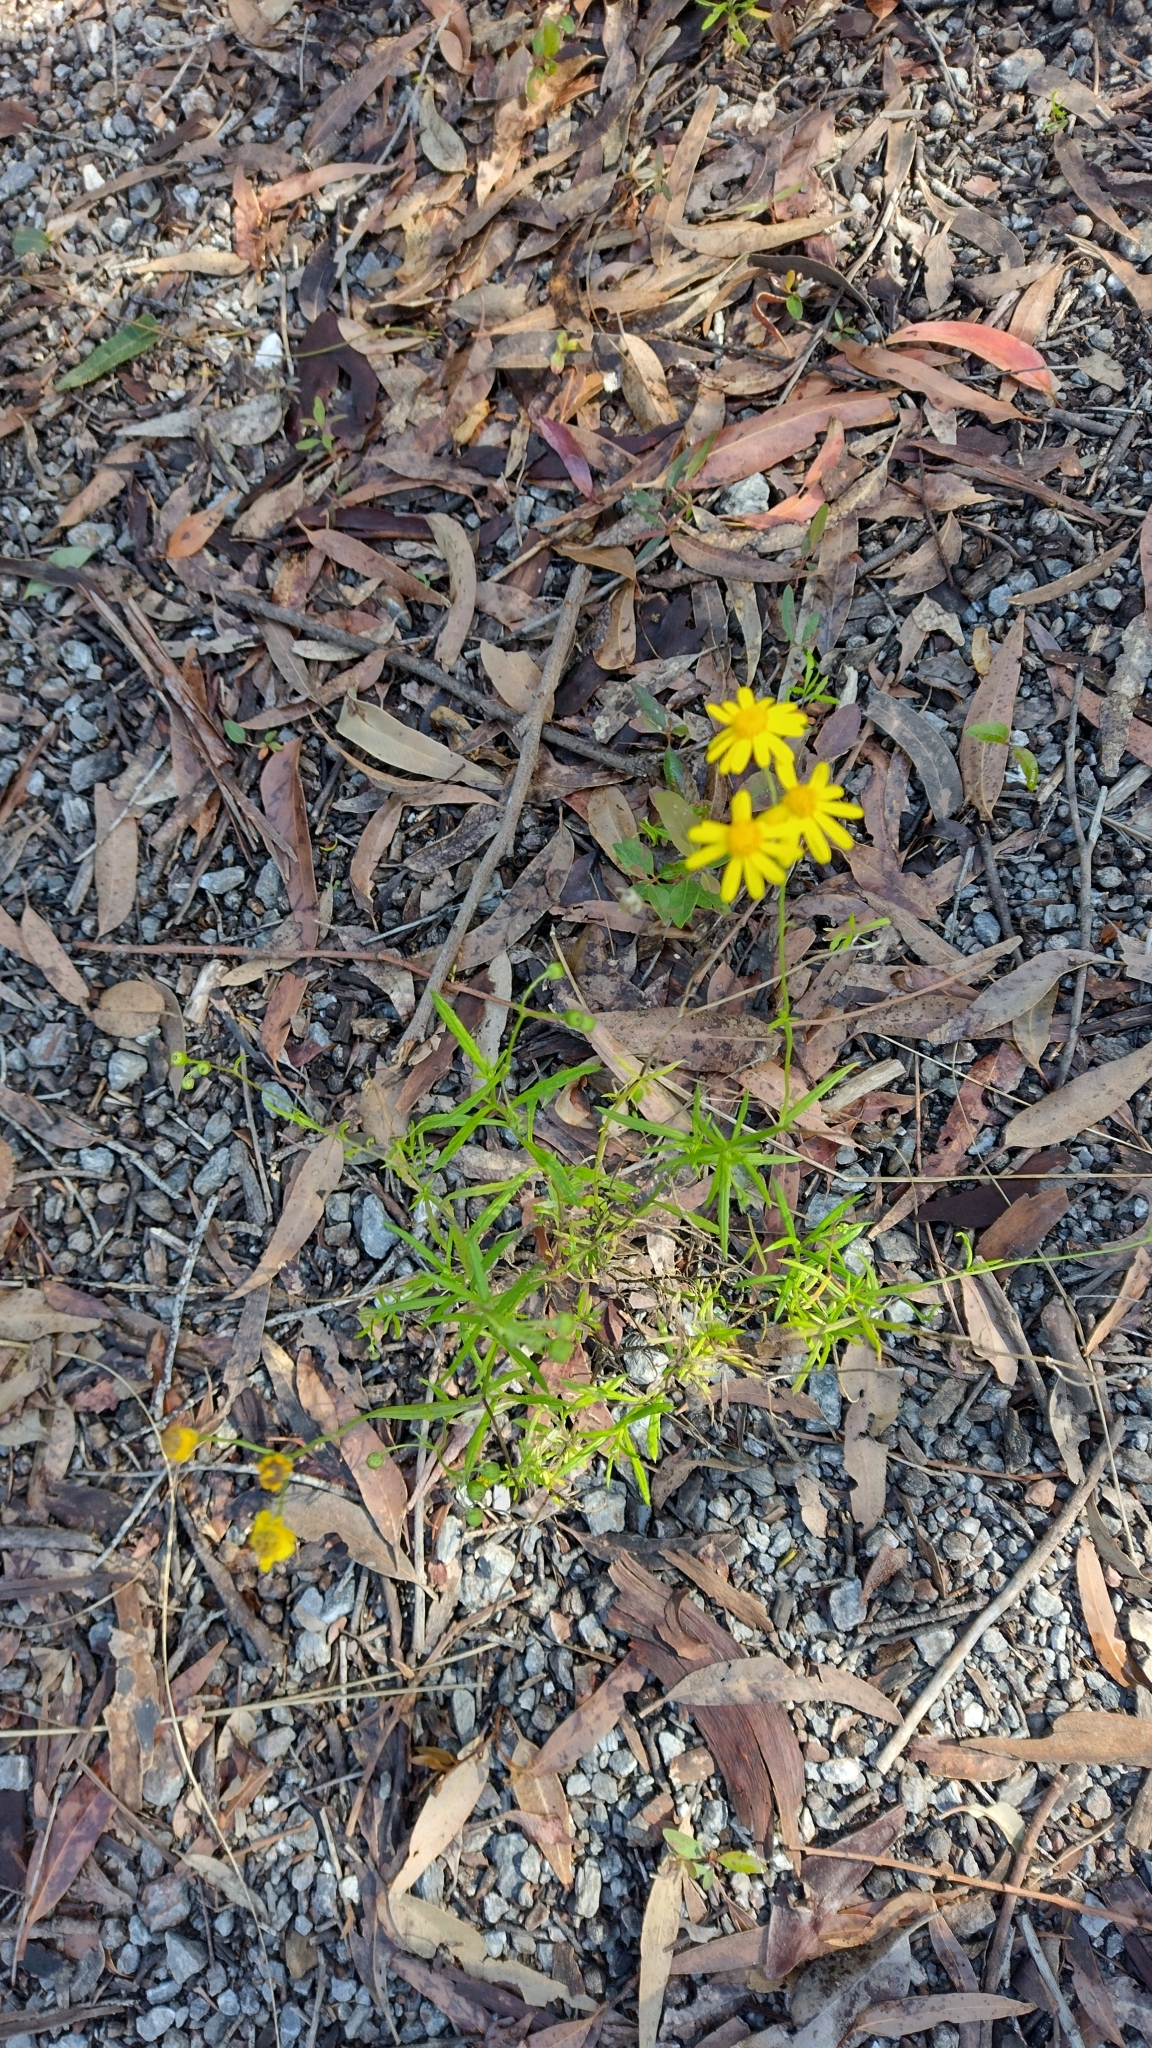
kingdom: Plantae
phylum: Tracheophyta
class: Magnoliopsida
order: Asterales
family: Asteraceae
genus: Senecio
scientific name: Senecio madagascariensis
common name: Madagascar ragwort
